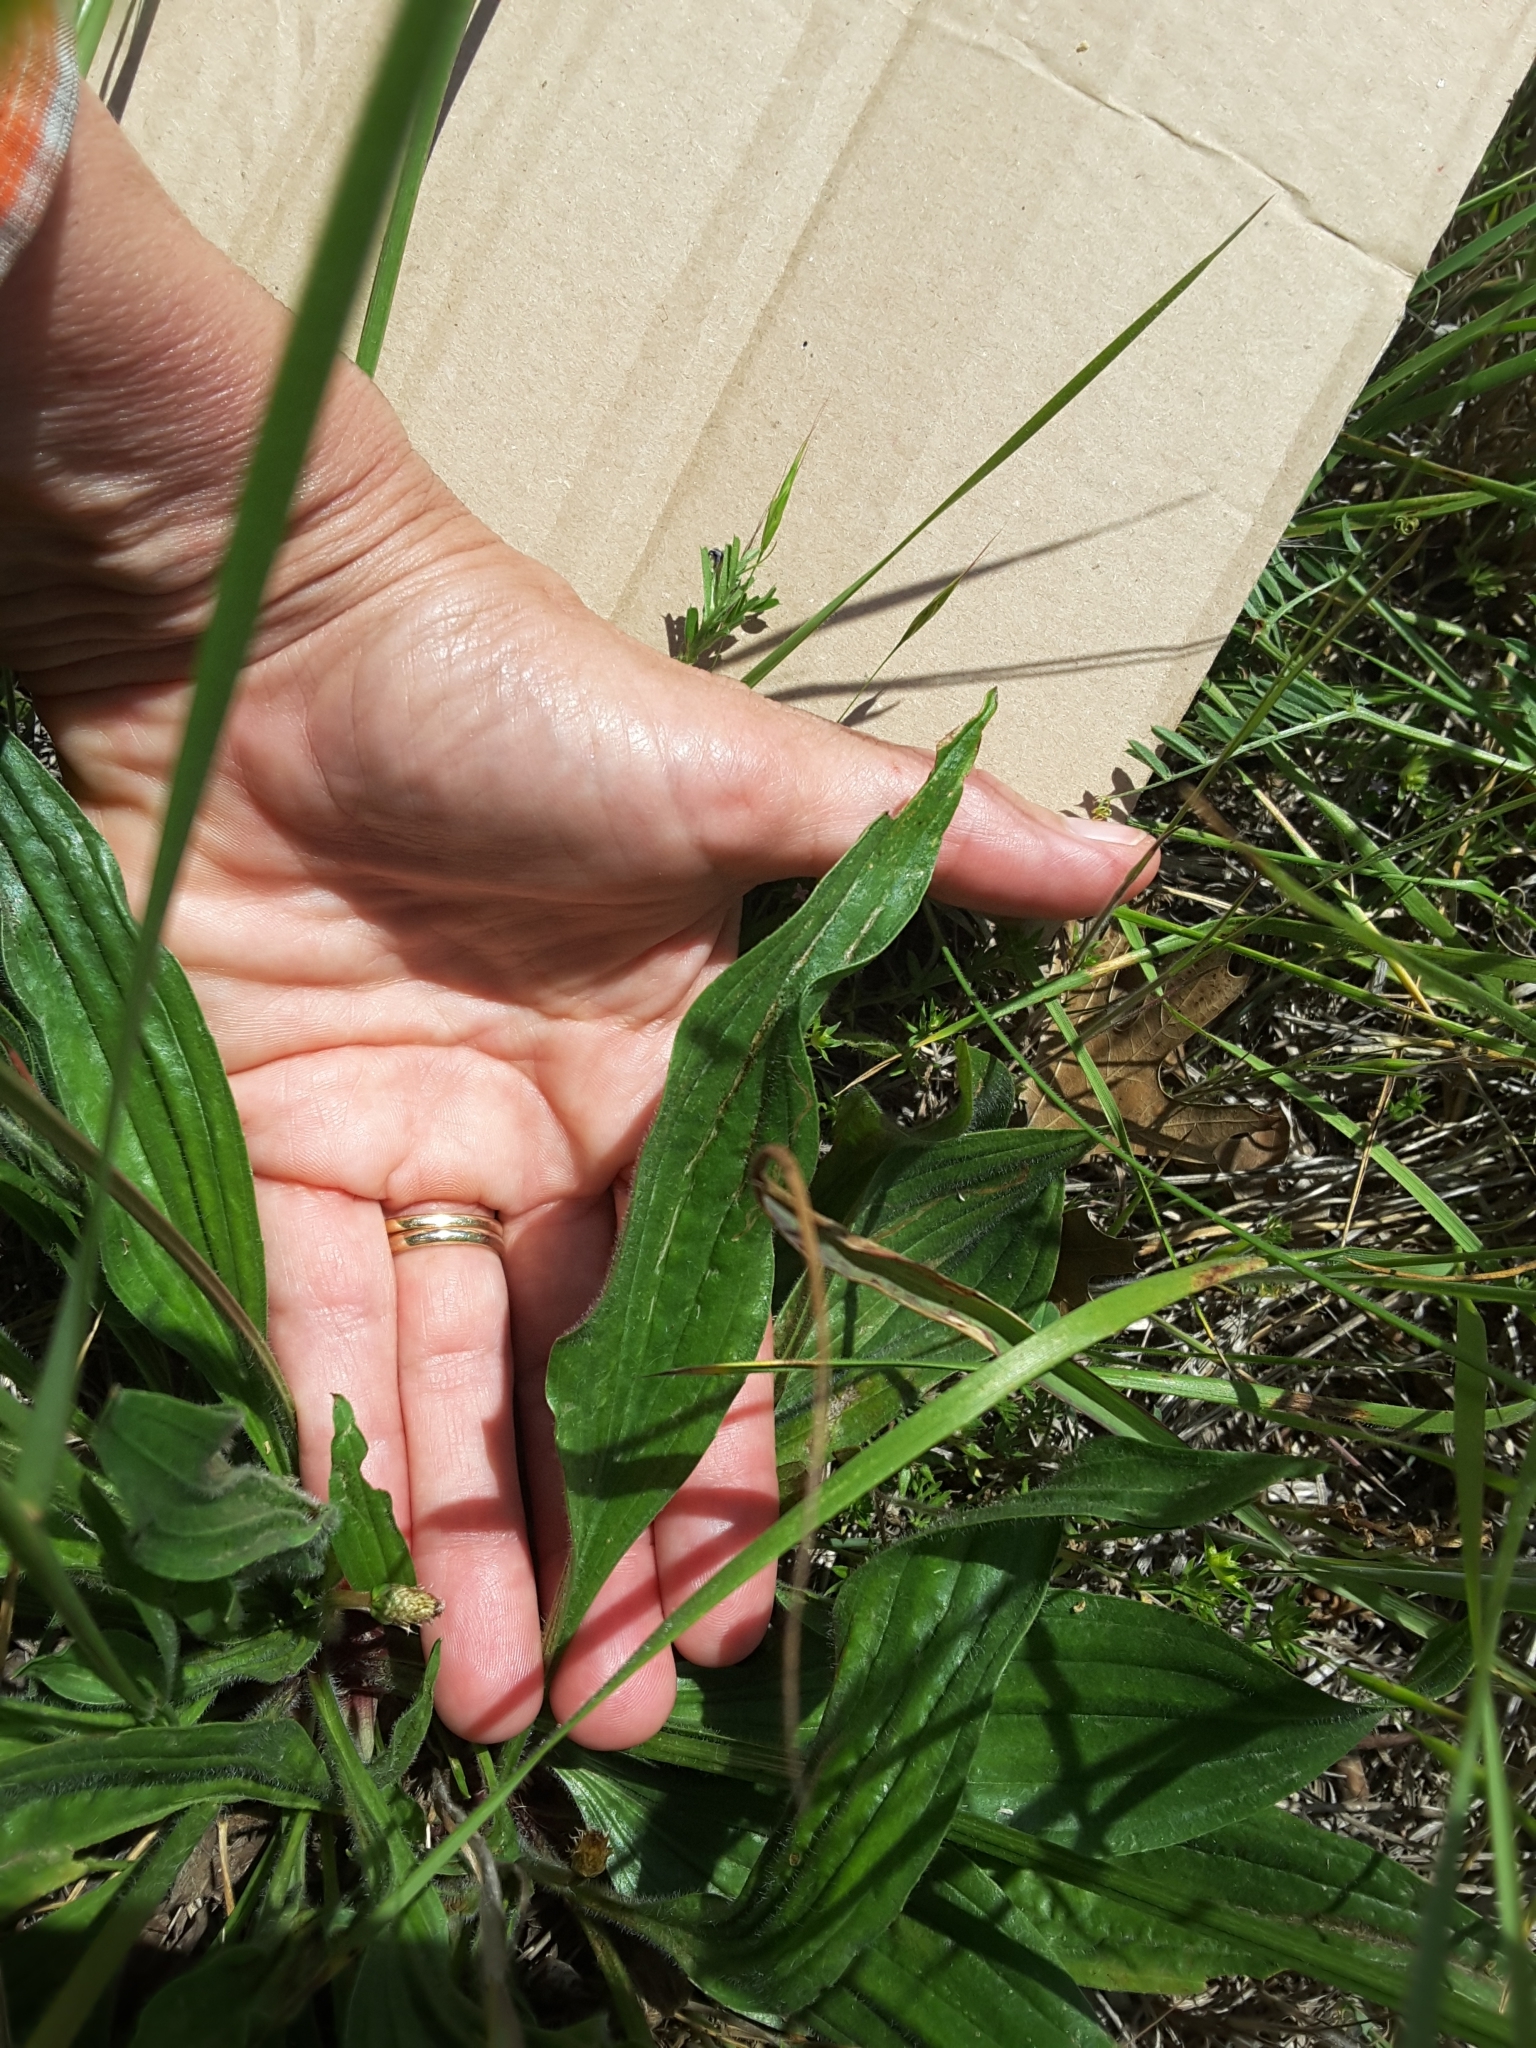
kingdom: Plantae
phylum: Tracheophyta
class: Magnoliopsida
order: Lamiales
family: Plantaginaceae
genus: Plantago
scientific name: Plantago lanceolata
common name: Ribwort plantain
